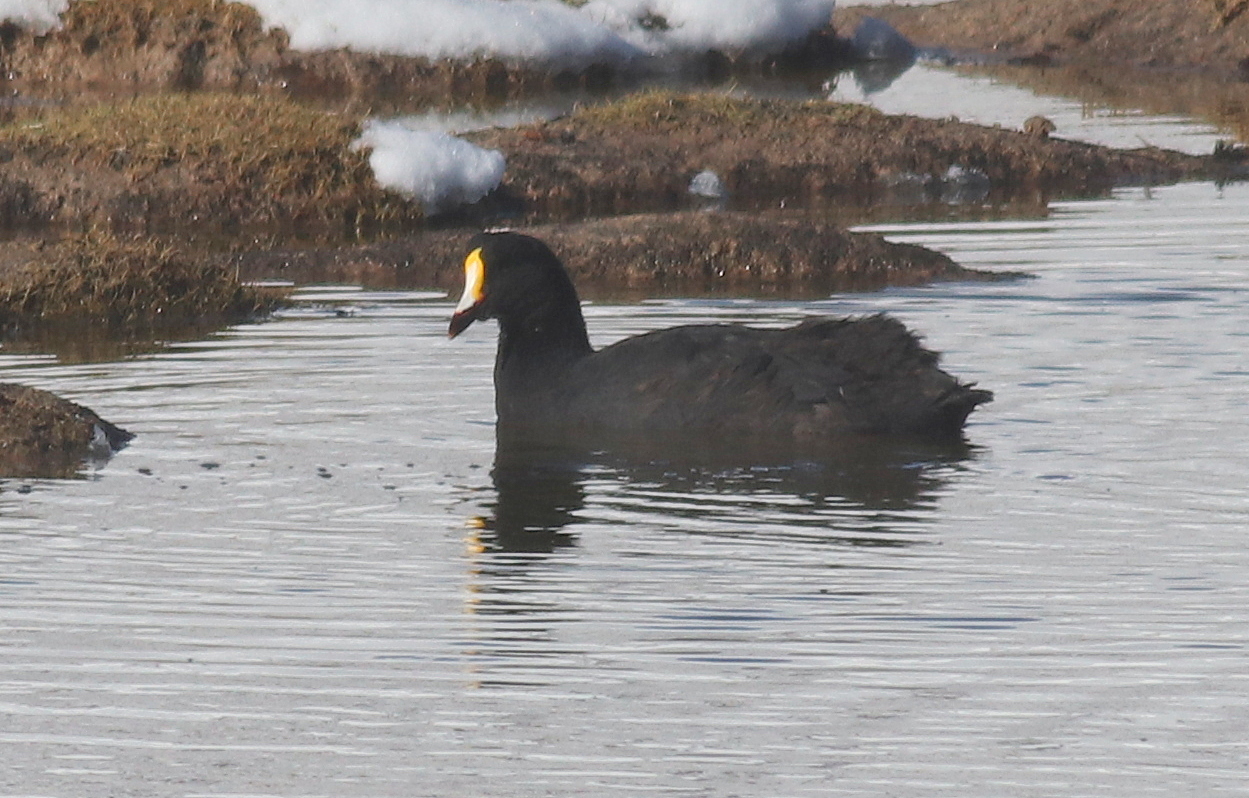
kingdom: Animalia
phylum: Chordata
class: Aves
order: Gruiformes
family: Rallidae
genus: Fulica
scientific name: Fulica gigantea
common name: Giant coot
